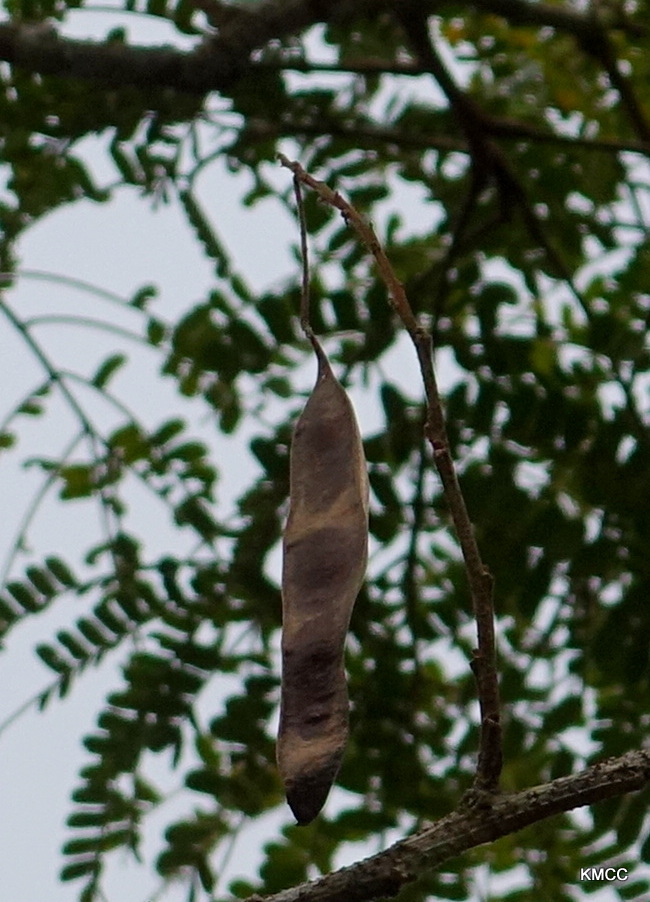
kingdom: Plantae
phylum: Tracheophyta
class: Magnoliopsida
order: Fabales
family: Fabaceae
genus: Albizia
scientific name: Albizia adianthifolia
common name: West african albizia
